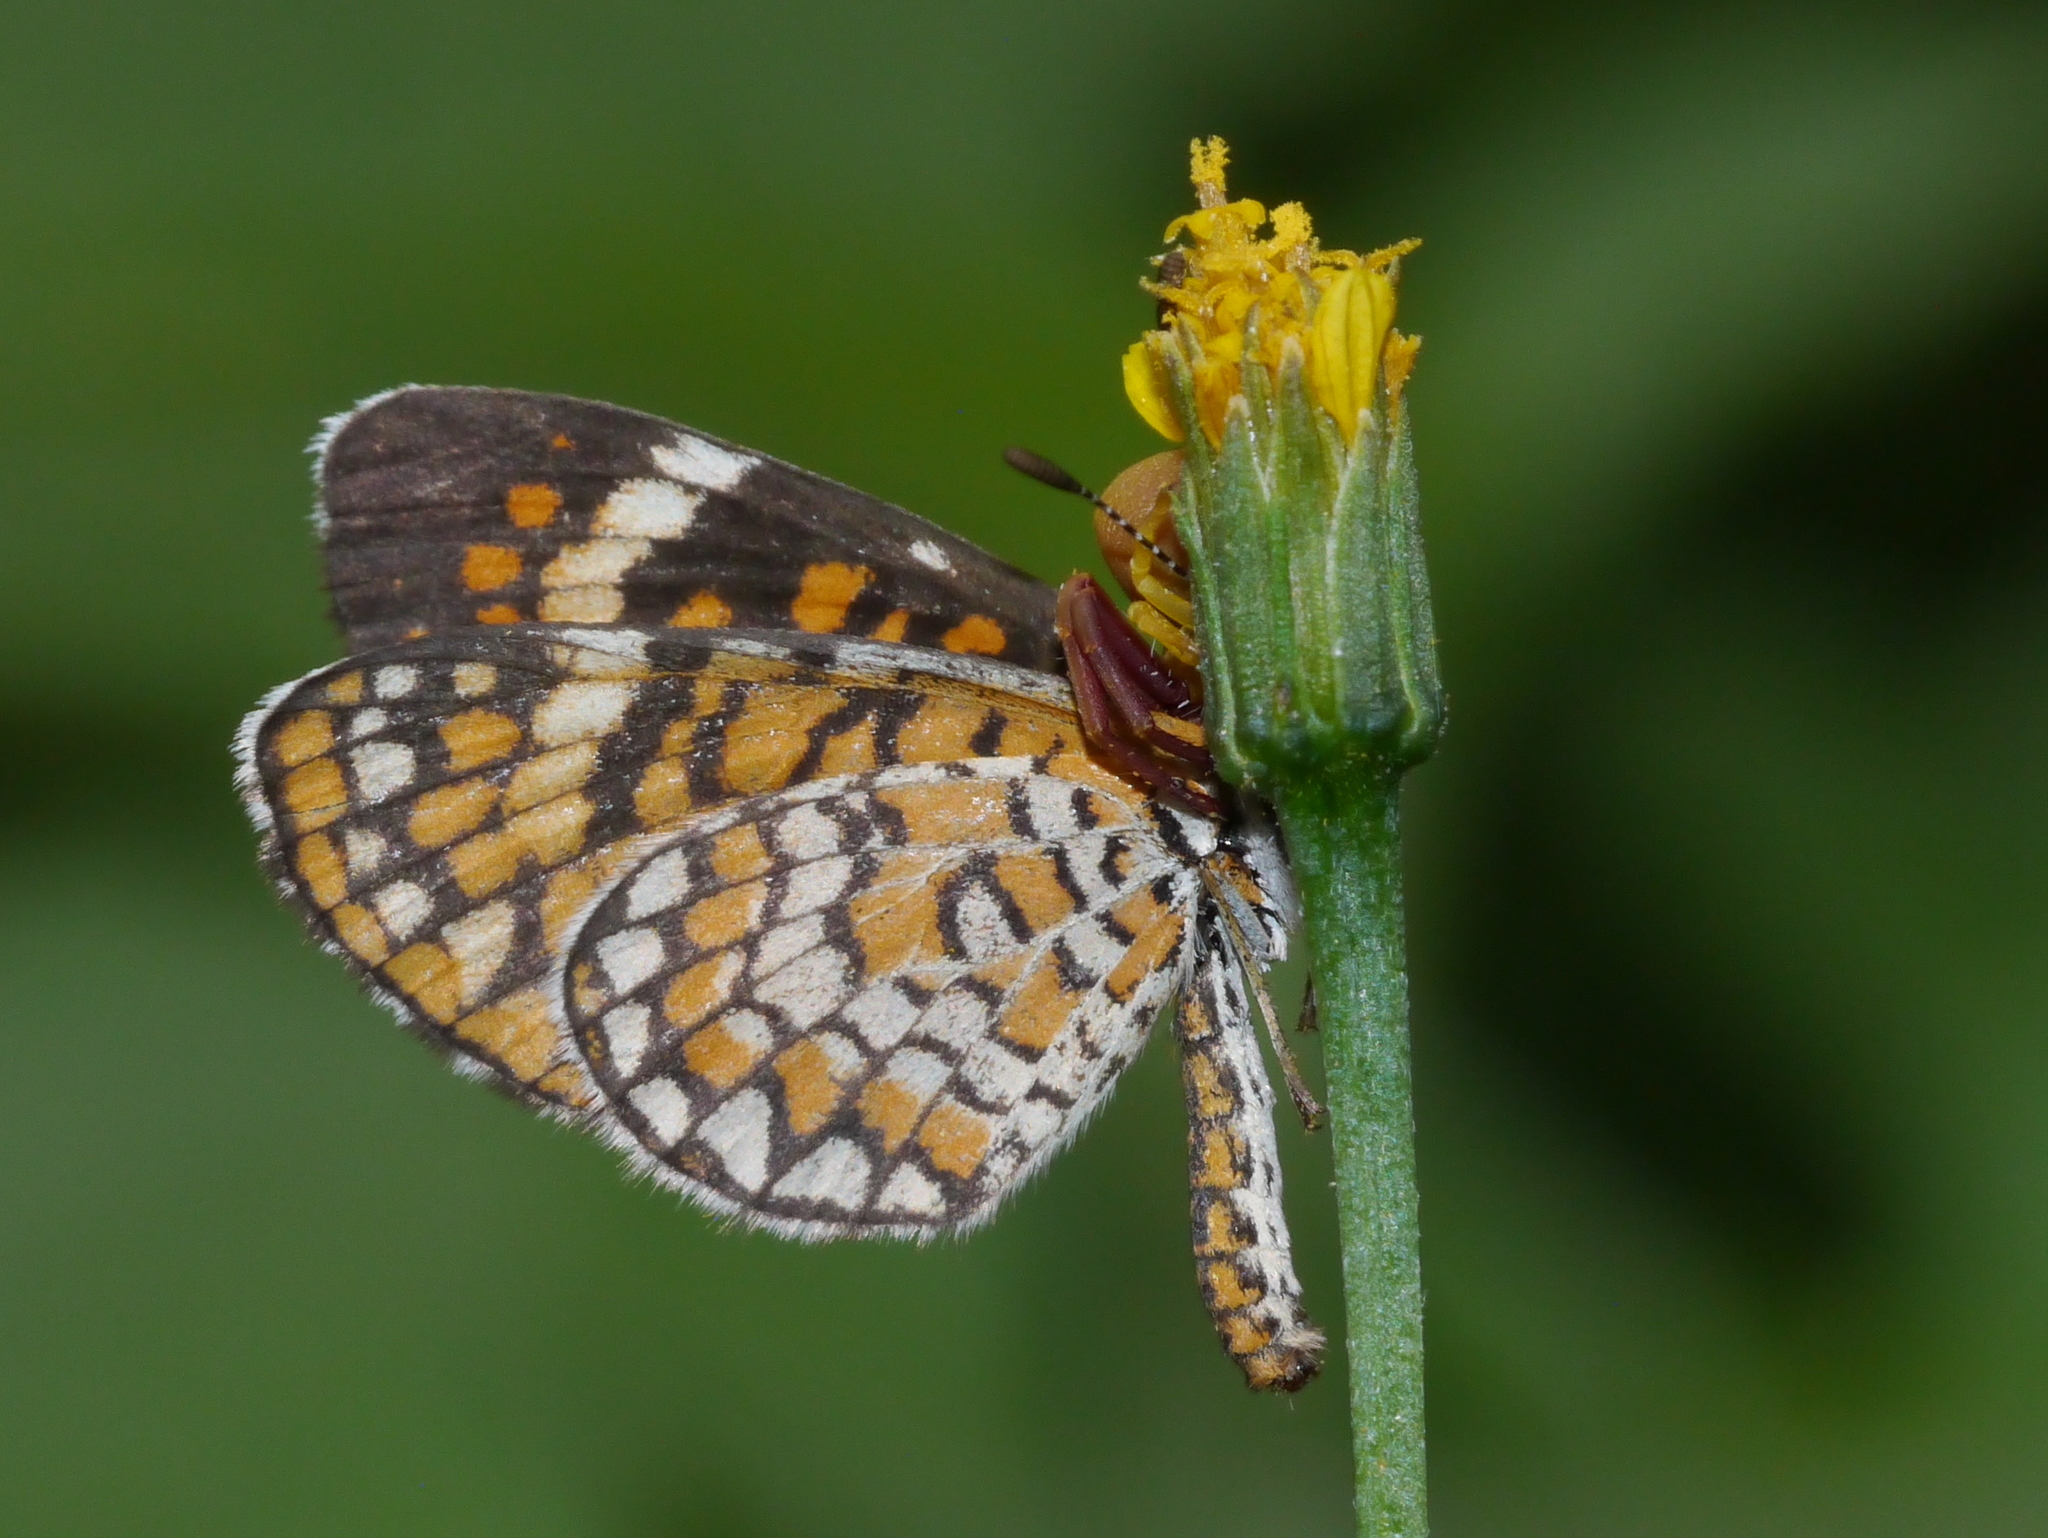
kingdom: Animalia
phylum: Arthropoda
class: Insecta
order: Lepidoptera
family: Nymphalidae
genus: Dymasia
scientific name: Dymasia dymas
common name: Tiny checkerspot
